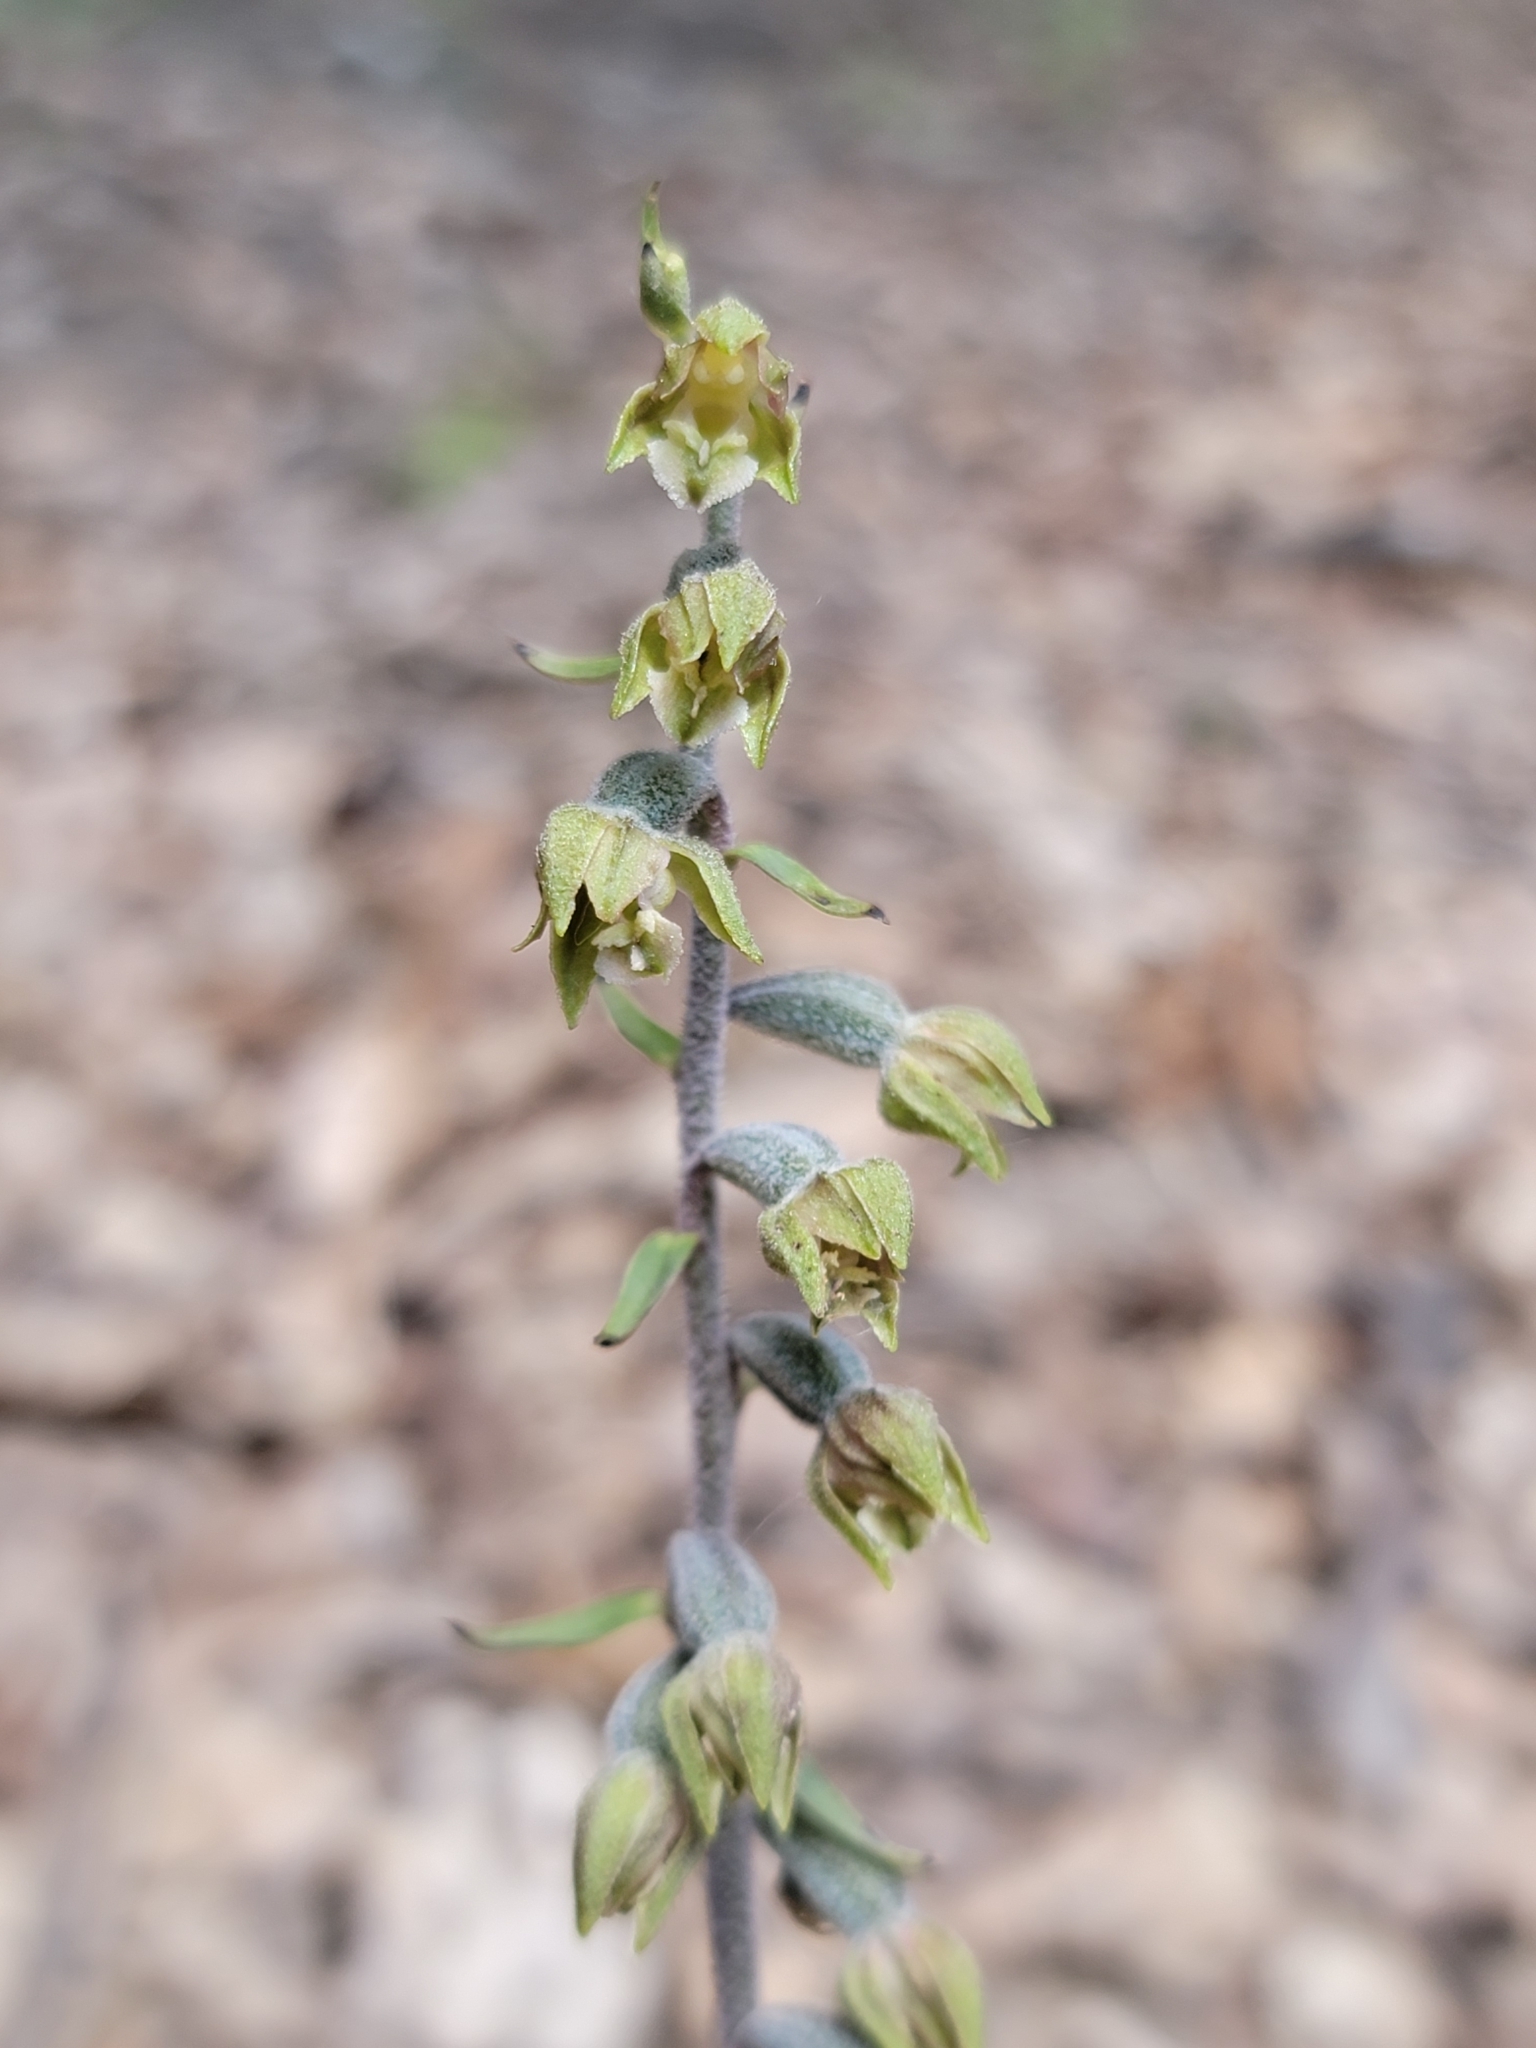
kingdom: Plantae
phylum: Tracheophyta
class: Liliopsida
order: Asparagales
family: Orchidaceae
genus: Epipactis
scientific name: Epipactis microphylla
